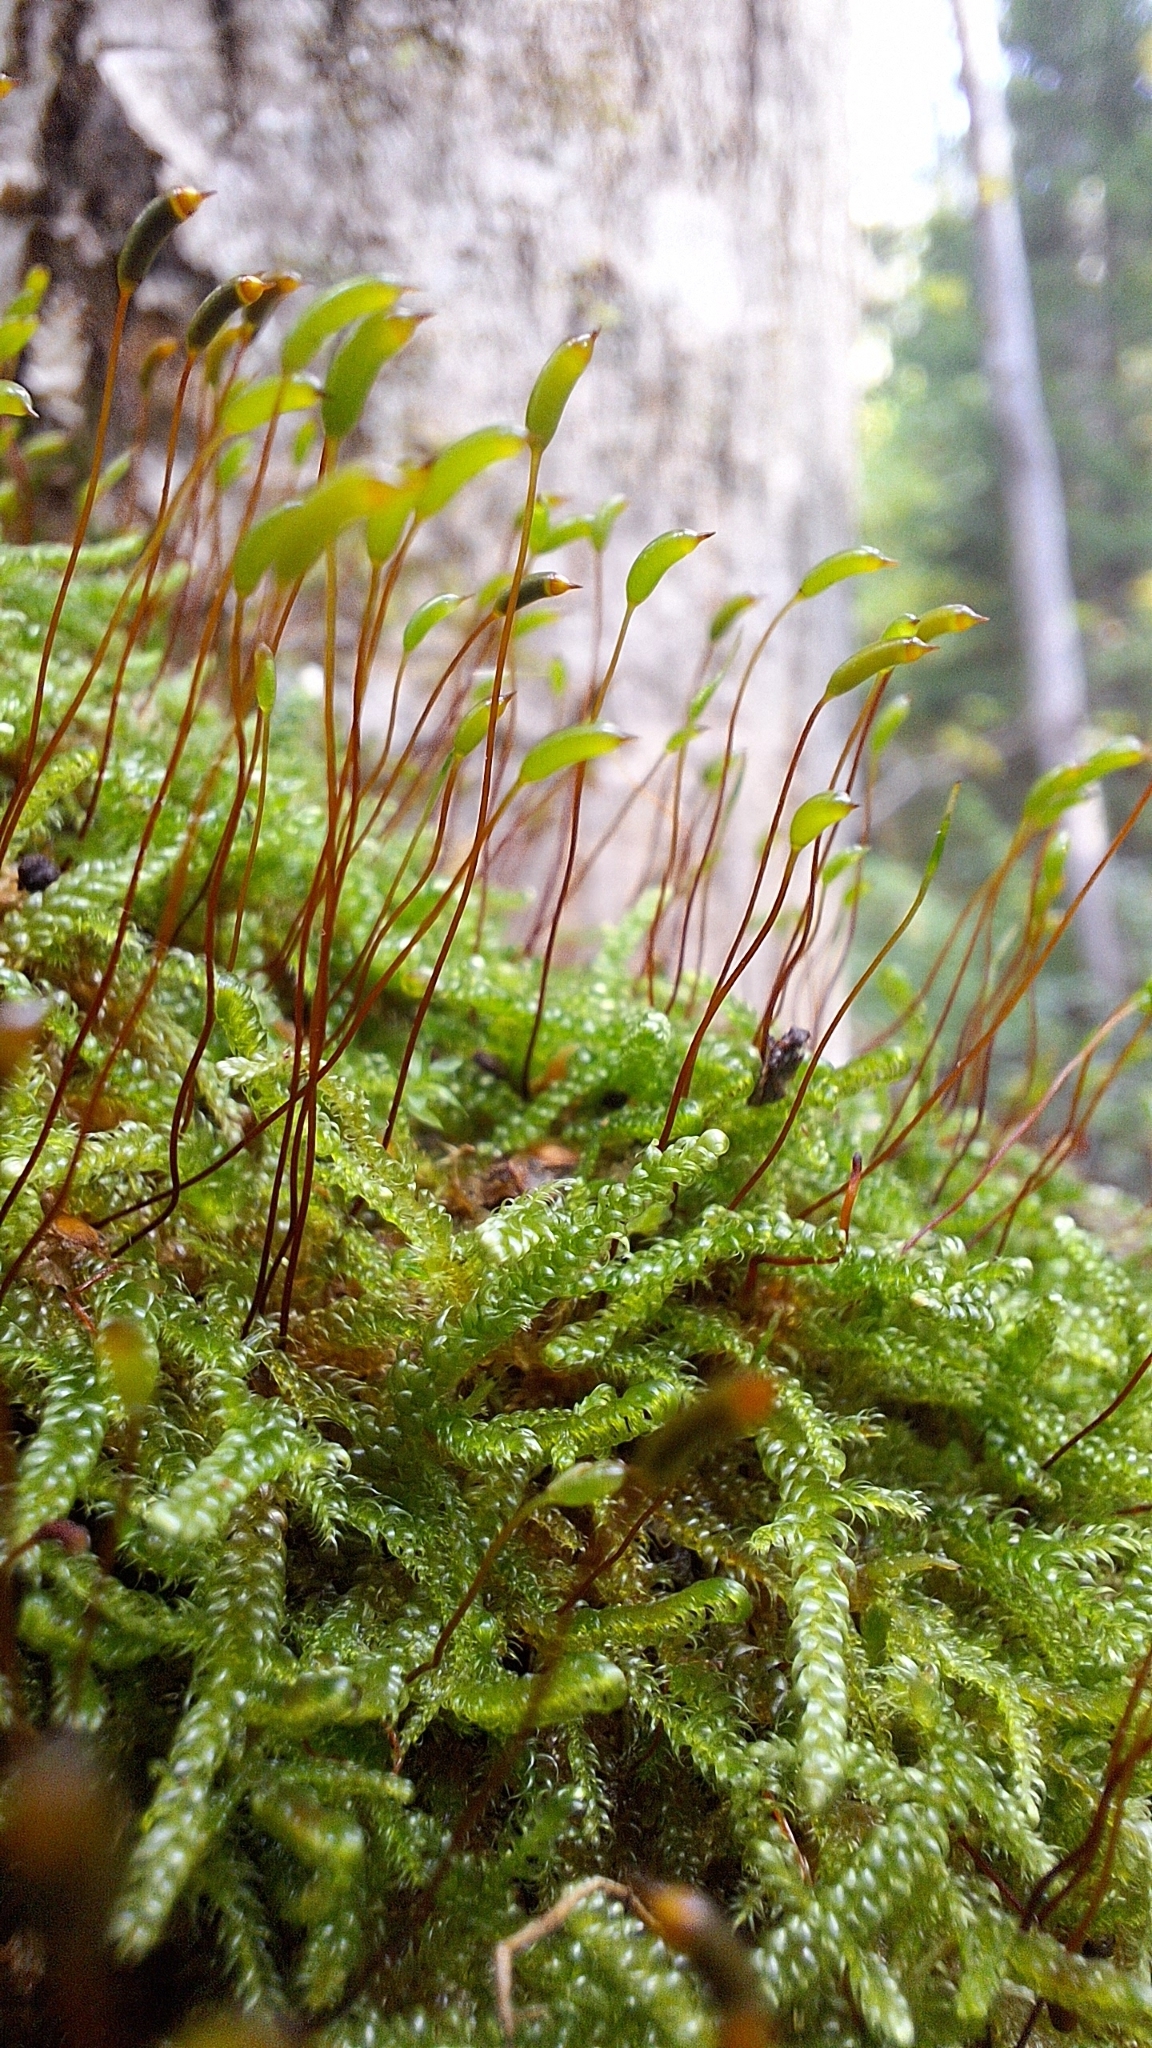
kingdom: Plantae
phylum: Bryophyta
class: Bryopsida
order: Hypnales
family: Hypnaceae
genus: Hypnum
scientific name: Hypnum cupressiforme
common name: Cypress-leaved plait-moss
